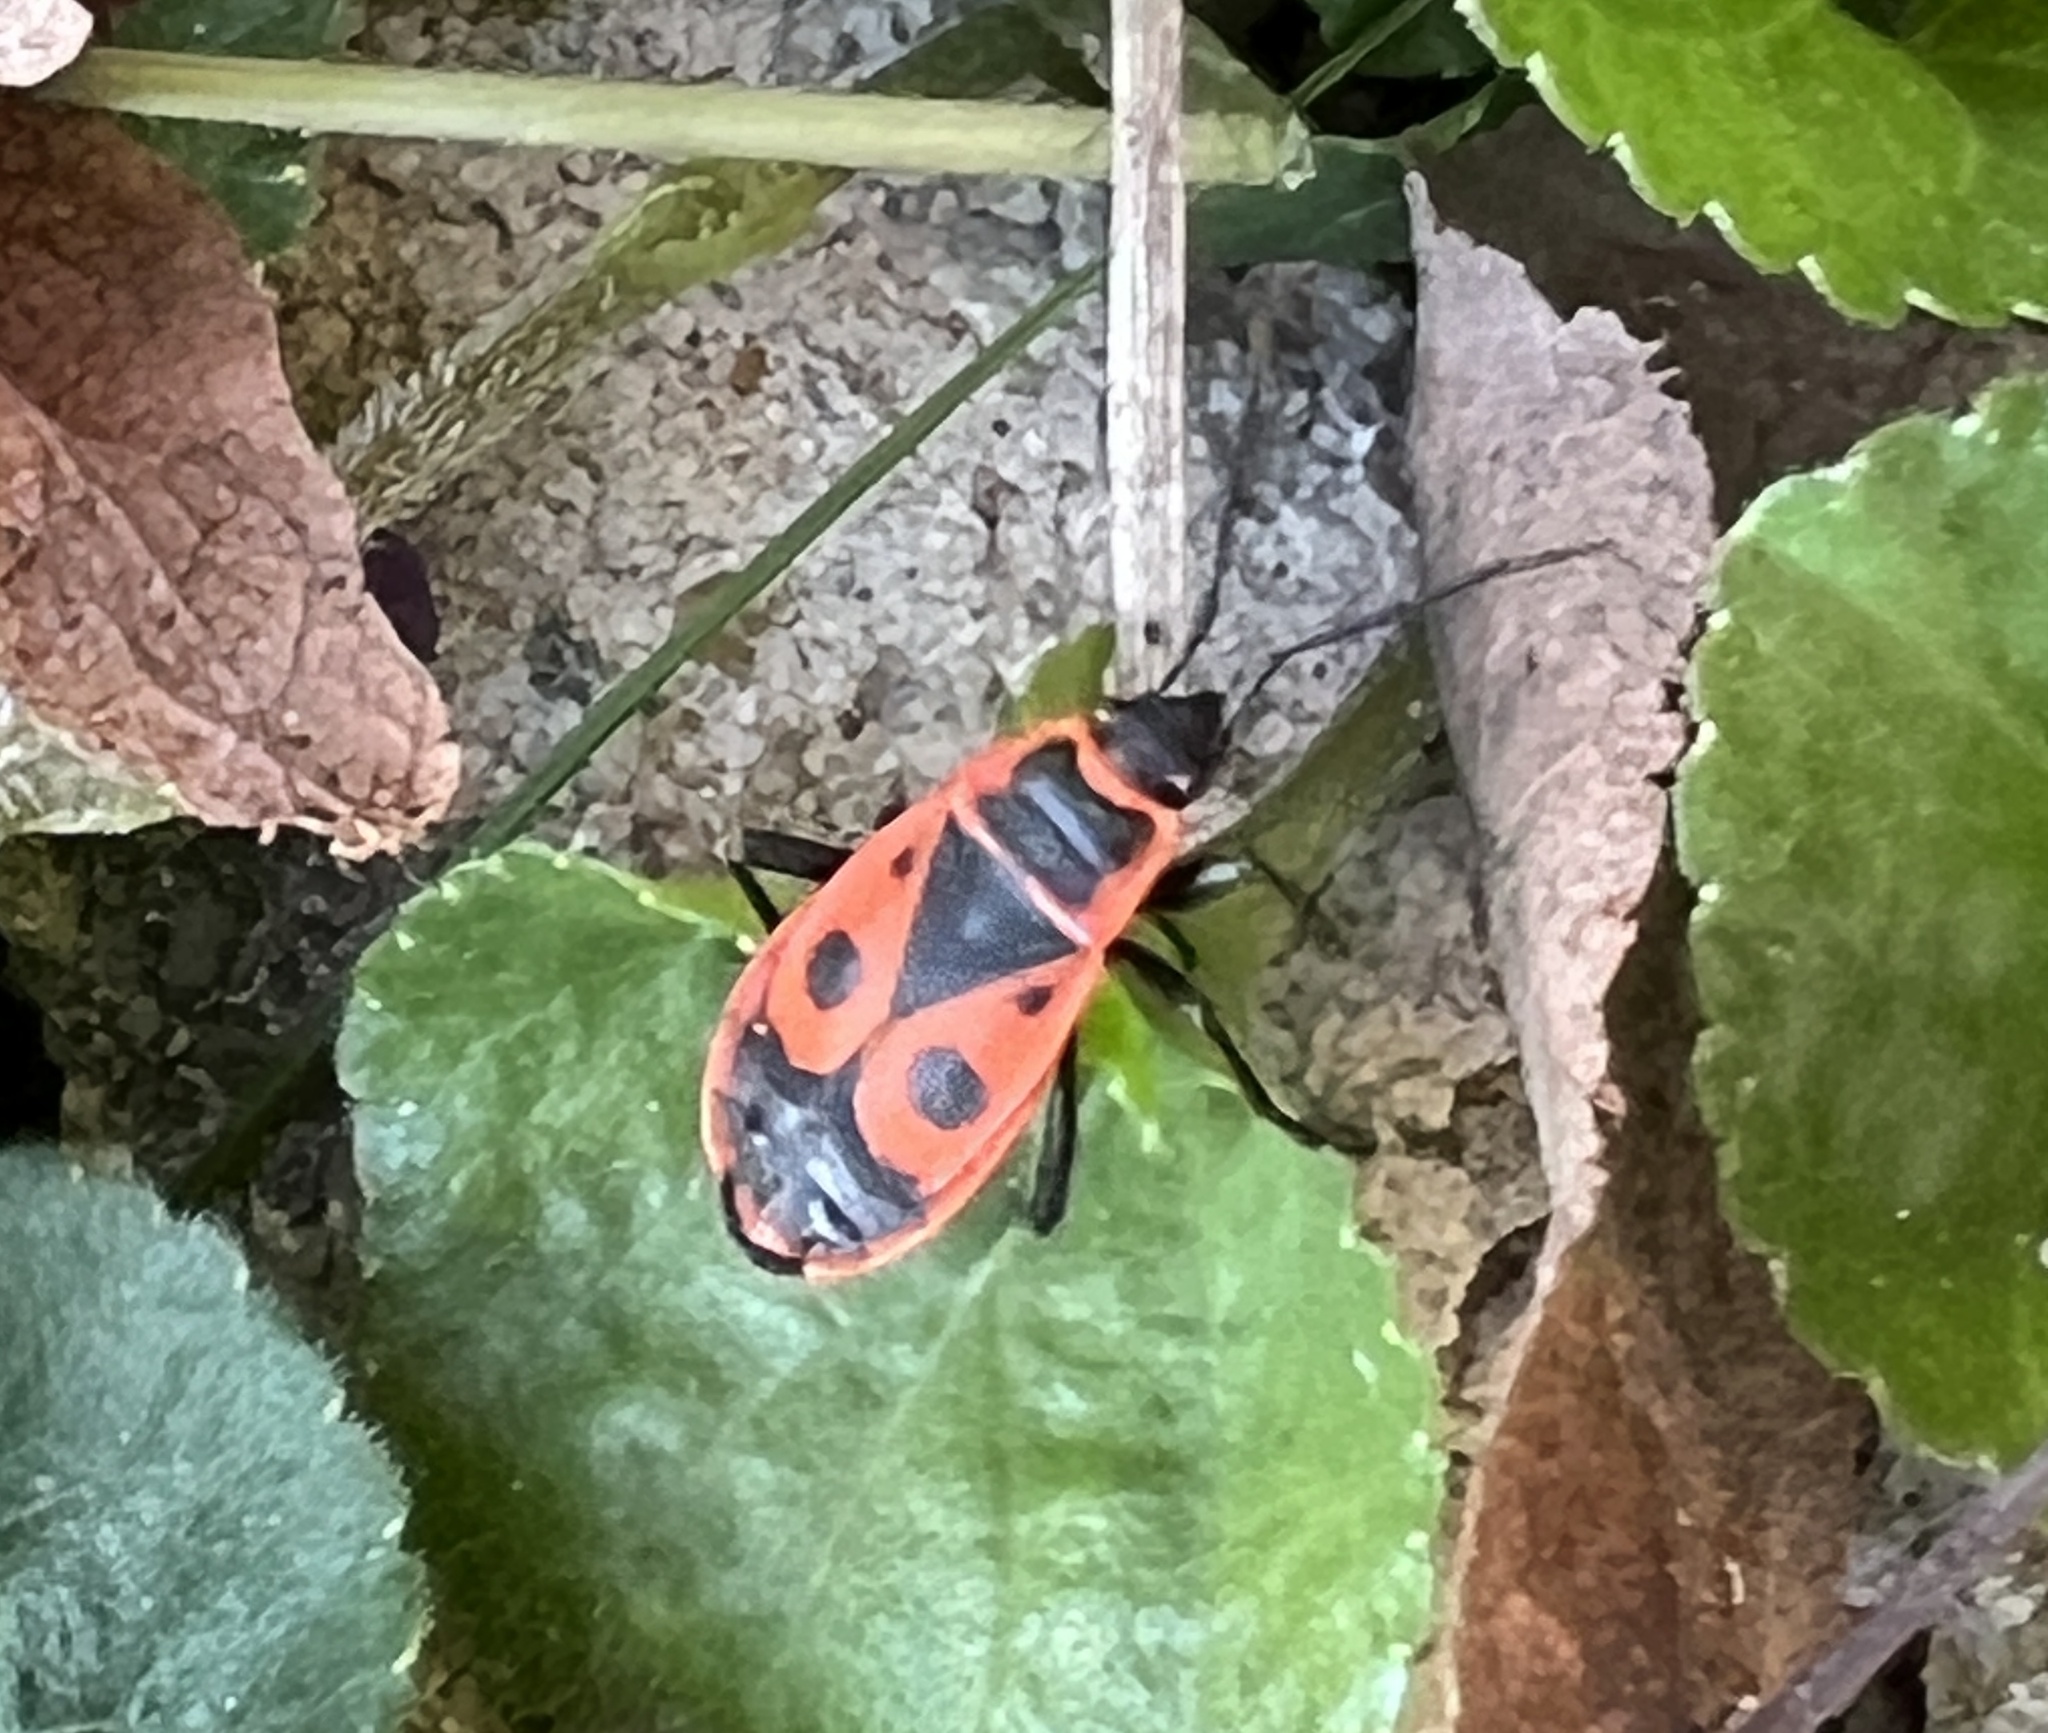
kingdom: Animalia
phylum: Arthropoda
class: Insecta
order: Hemiptera
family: Pyrrhocoridae
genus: Pyrrhocoris
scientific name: Pyrrhocoris apterus
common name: Firebug
